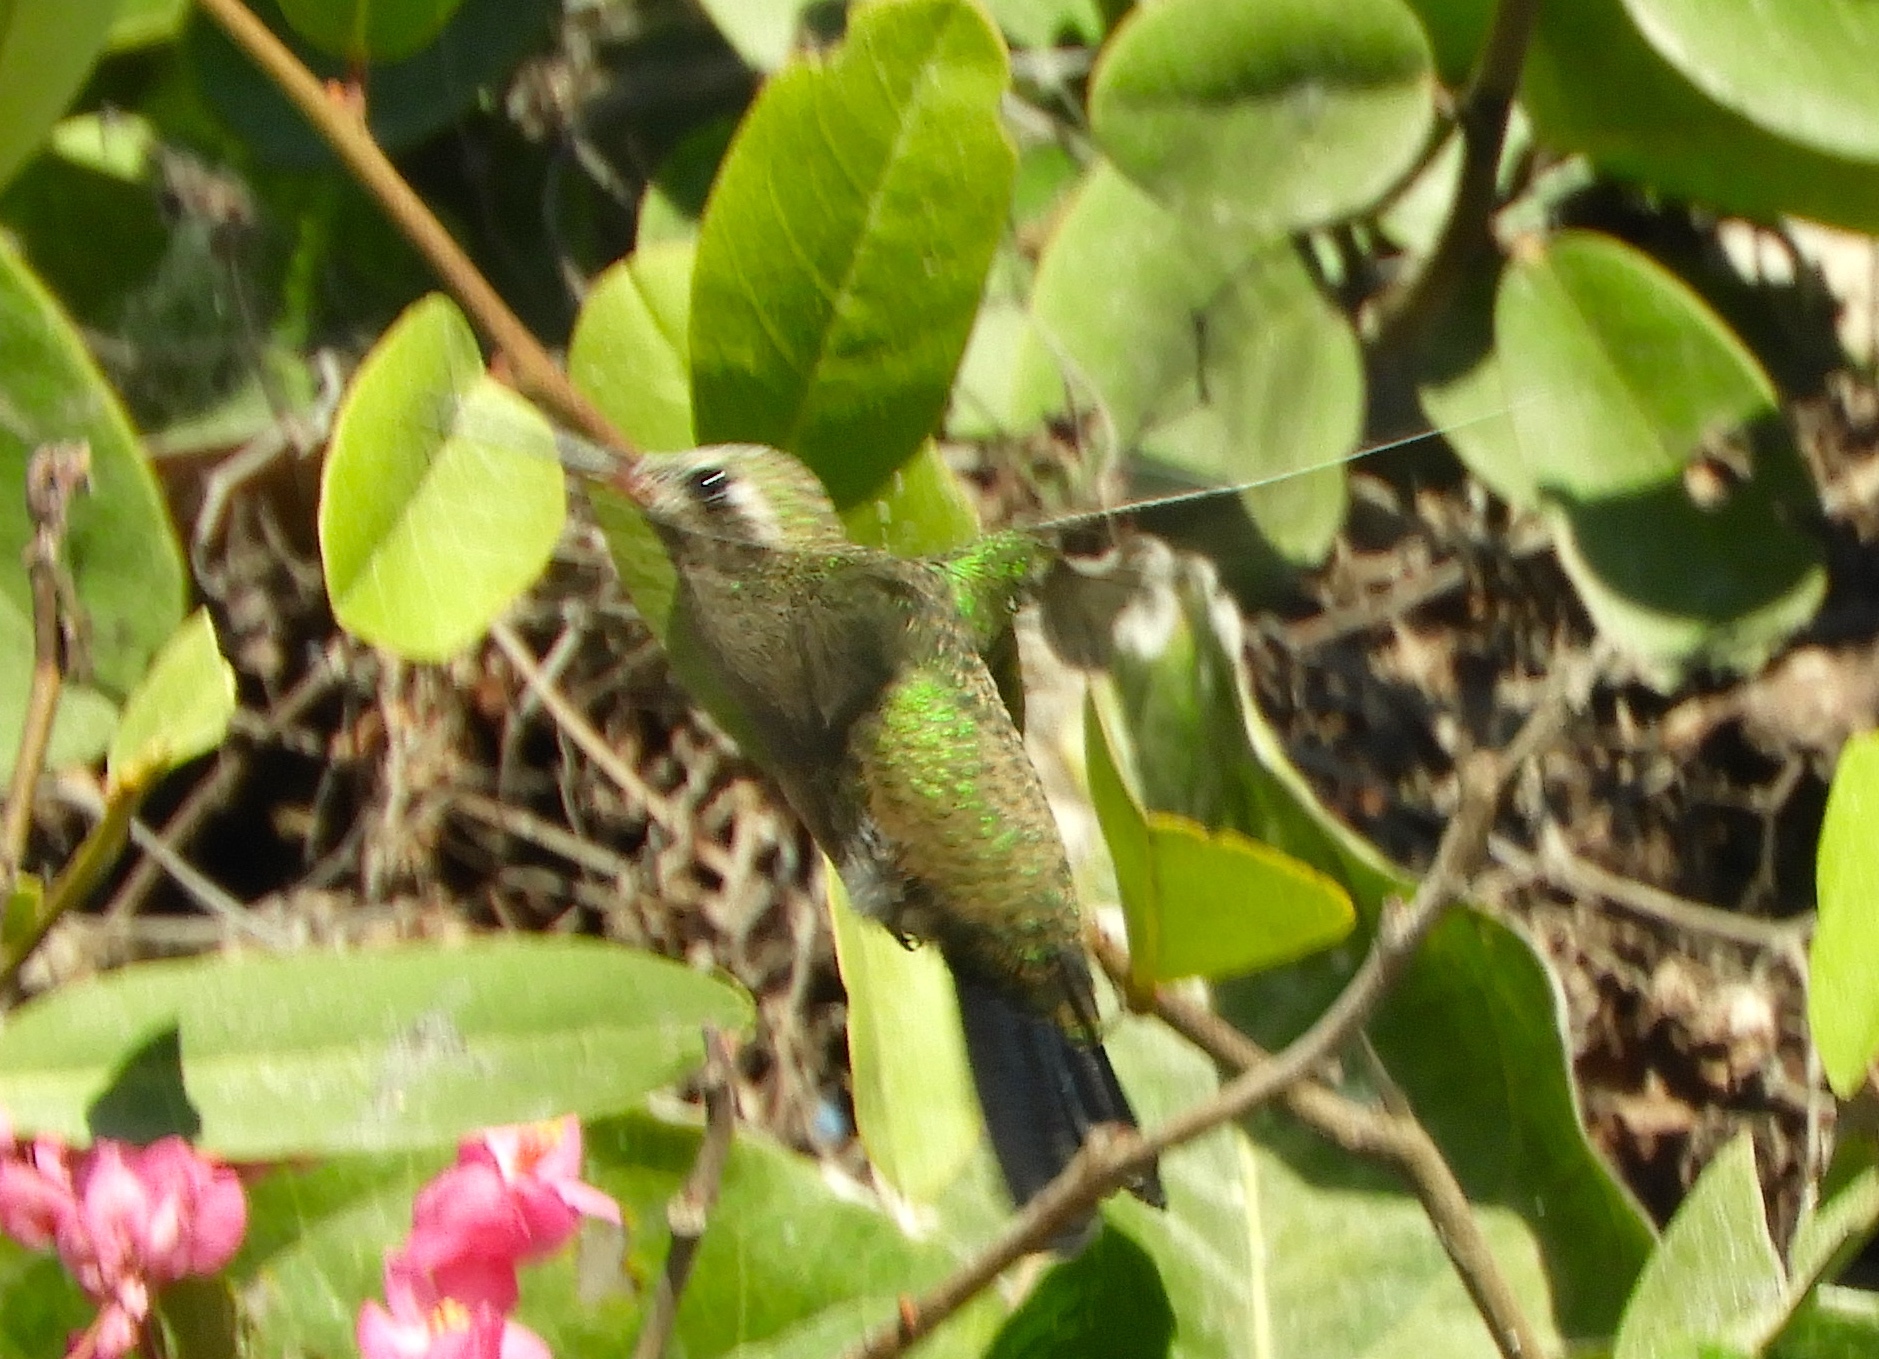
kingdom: Animalia
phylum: Chordata
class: Aves
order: Apodiformes
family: Trochilidae
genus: Cynanthus
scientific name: Cynanthus latirostris
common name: Broad-billed hummingbird
